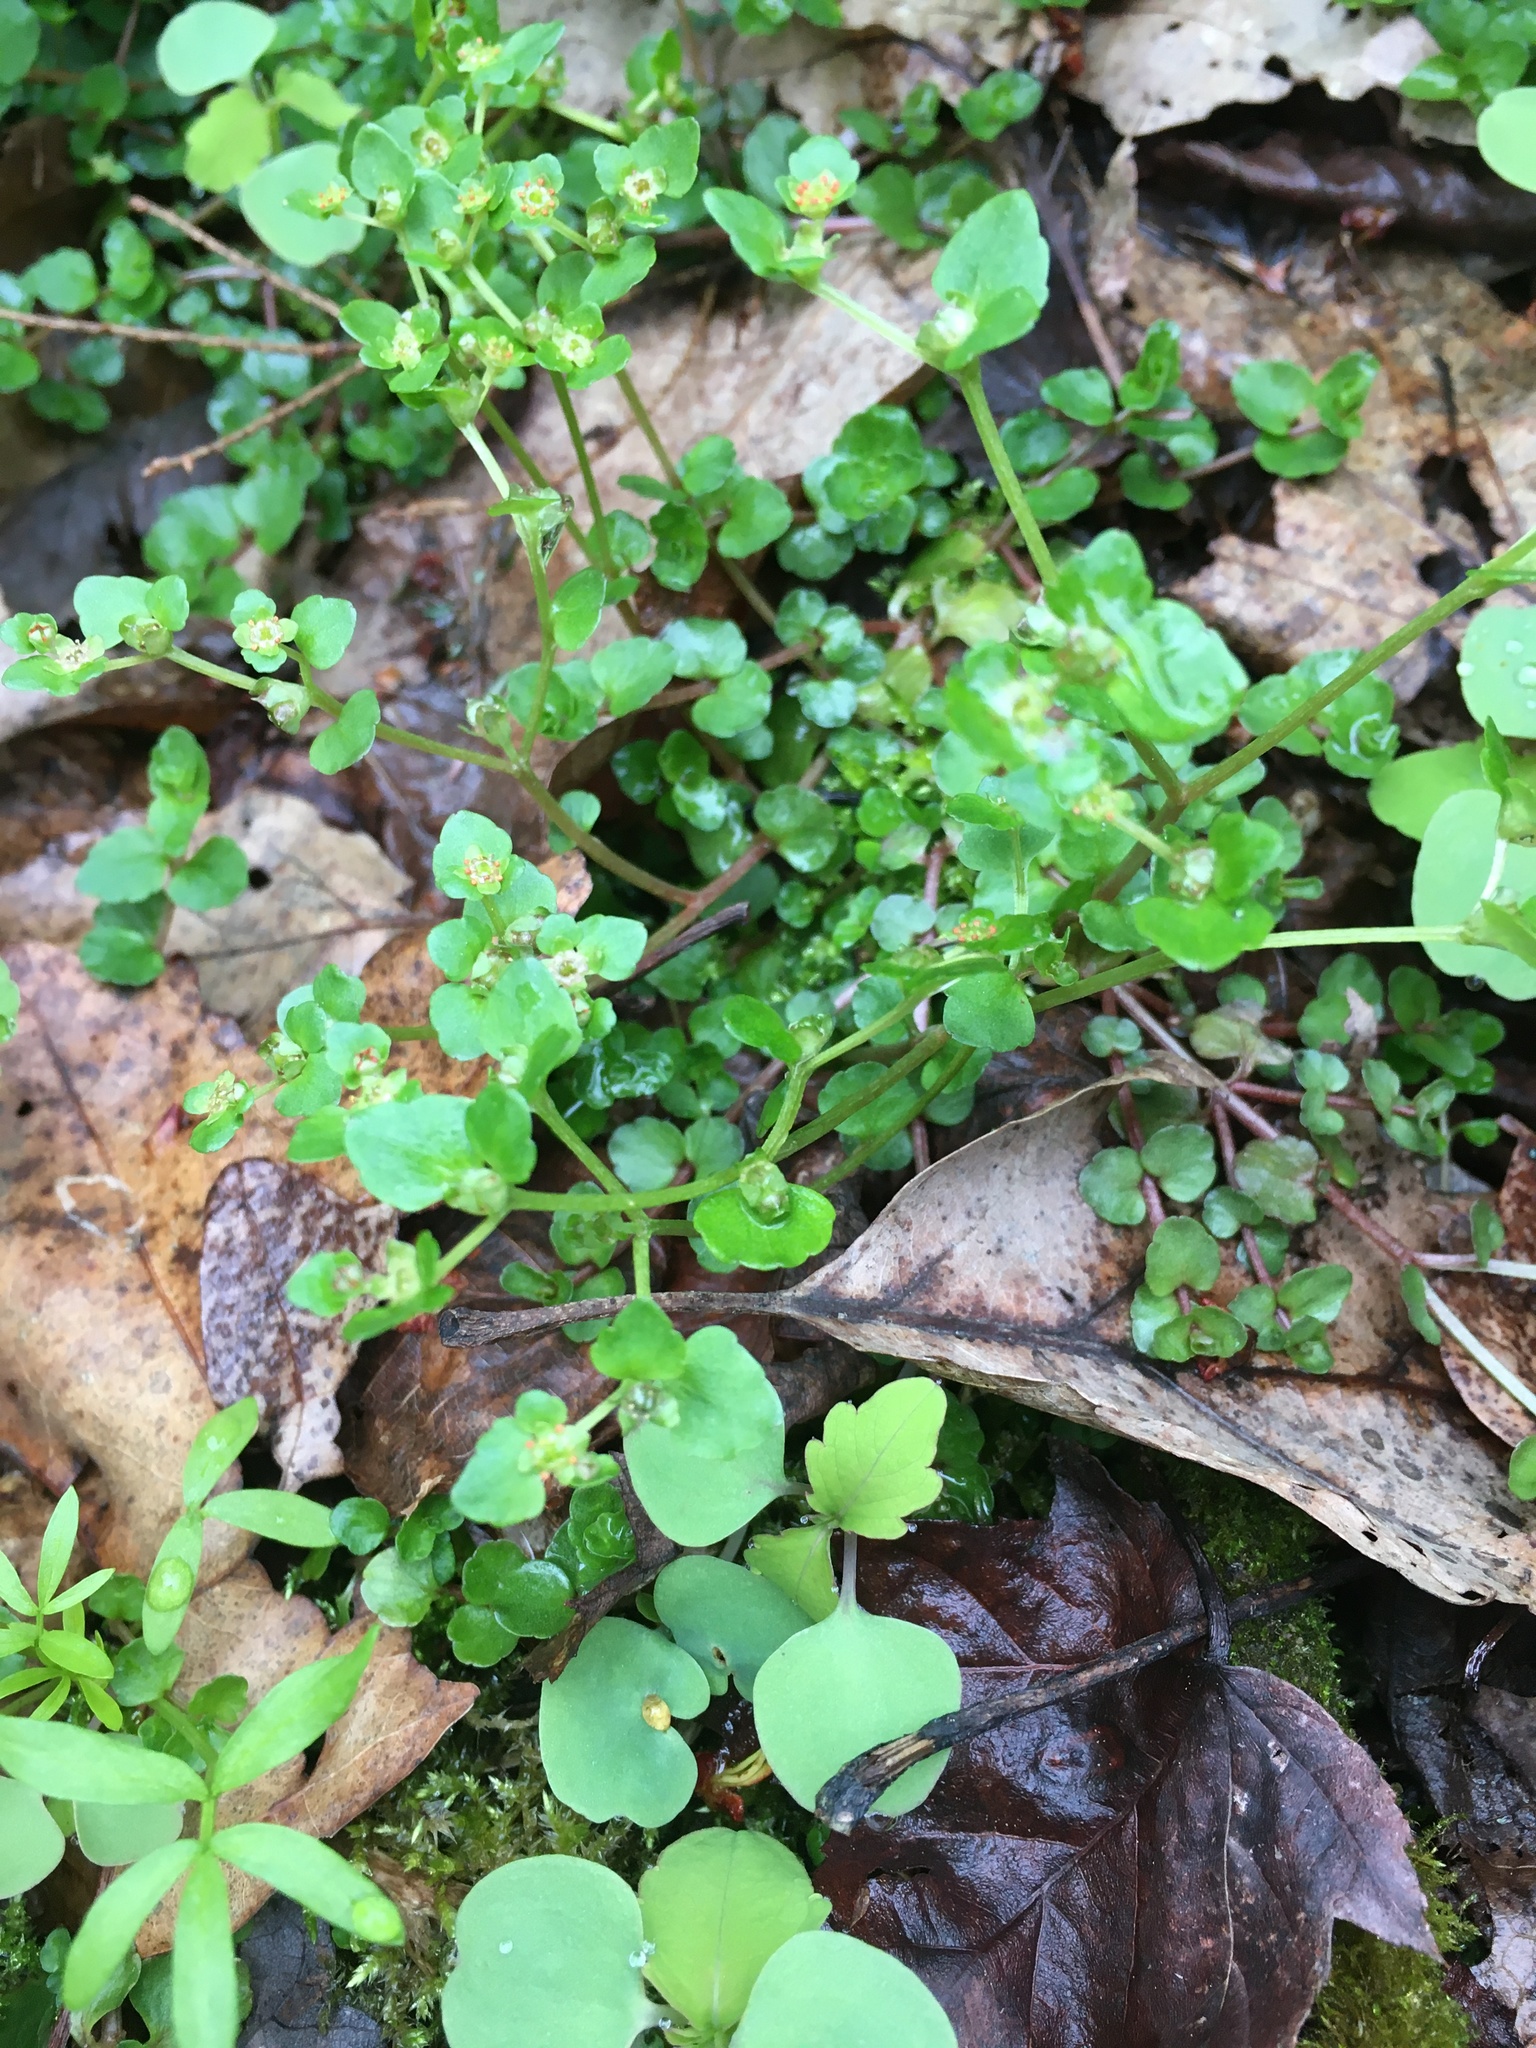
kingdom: Plantae
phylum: Tracheophyta
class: Magnoliopsida
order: Saxifragales
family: Saxifragaceae
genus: Chrysosplenium
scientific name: Chrysosplenium americanum
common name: American golden-saxifrage
